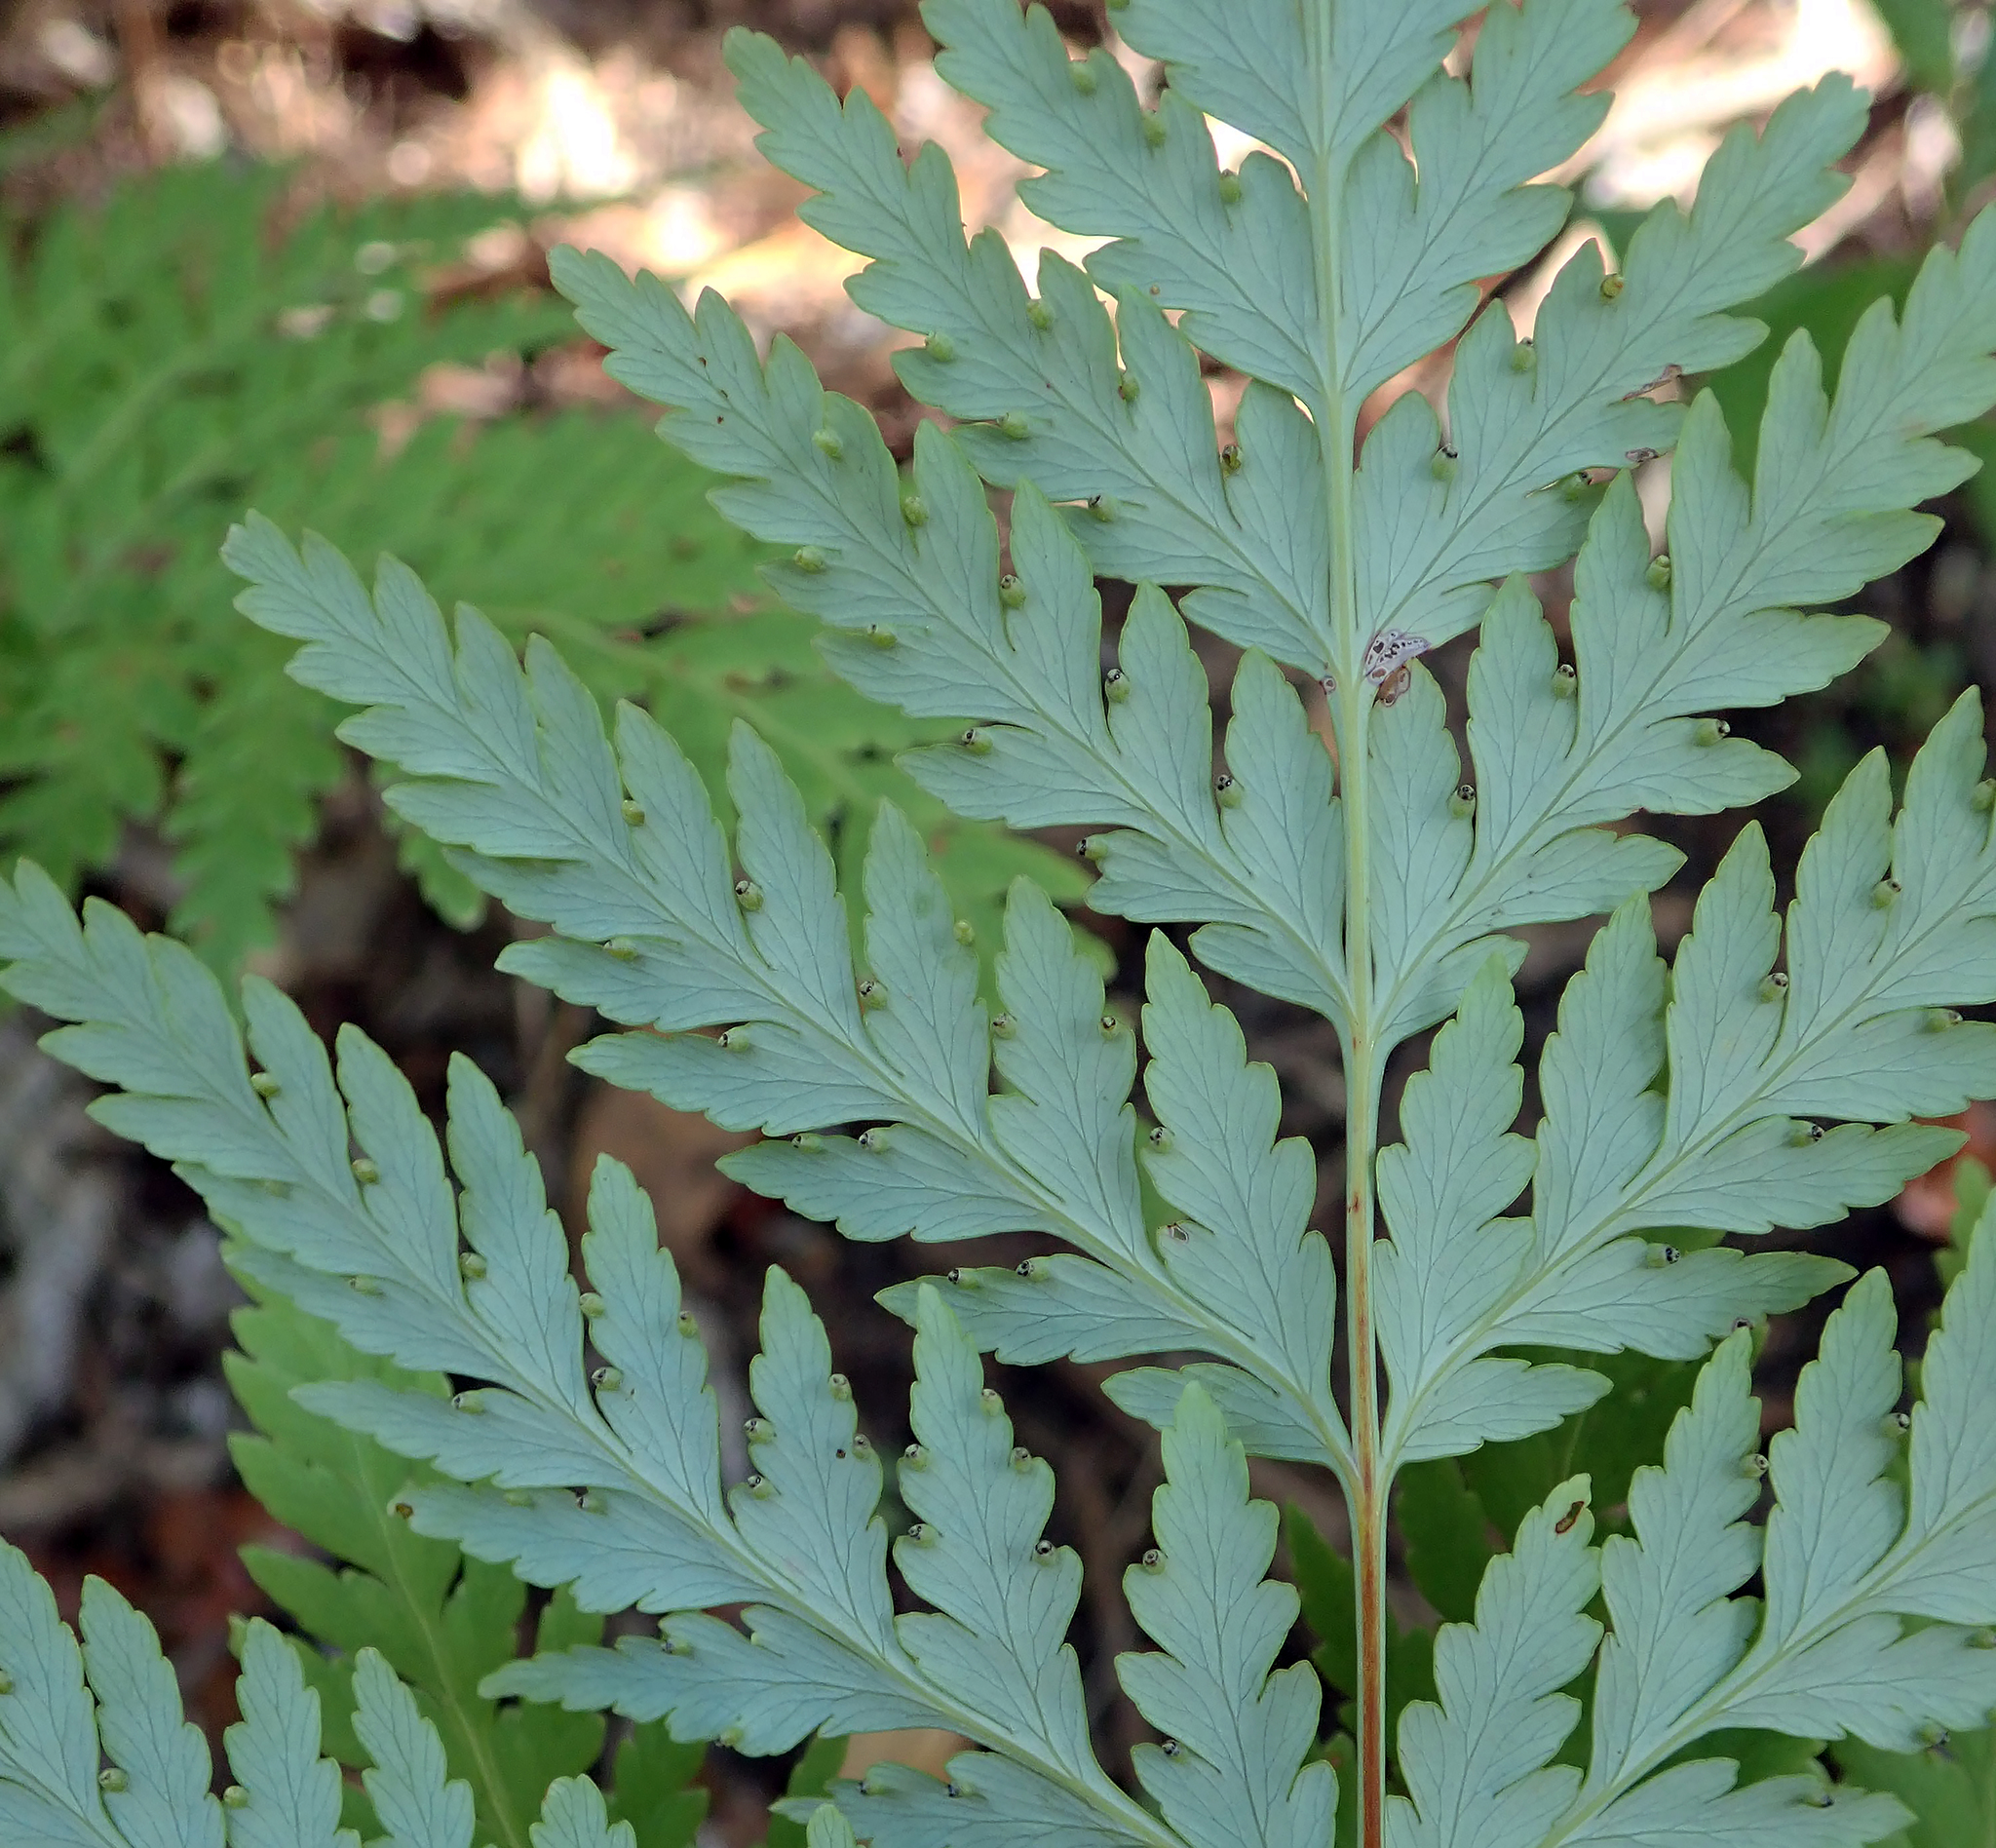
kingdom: Plantae
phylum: Tracheophyta
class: Polypodiopsida
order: Cyatheales
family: Loxsomataceae
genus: Loxsoma
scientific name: Loxsoma cunninghamii
